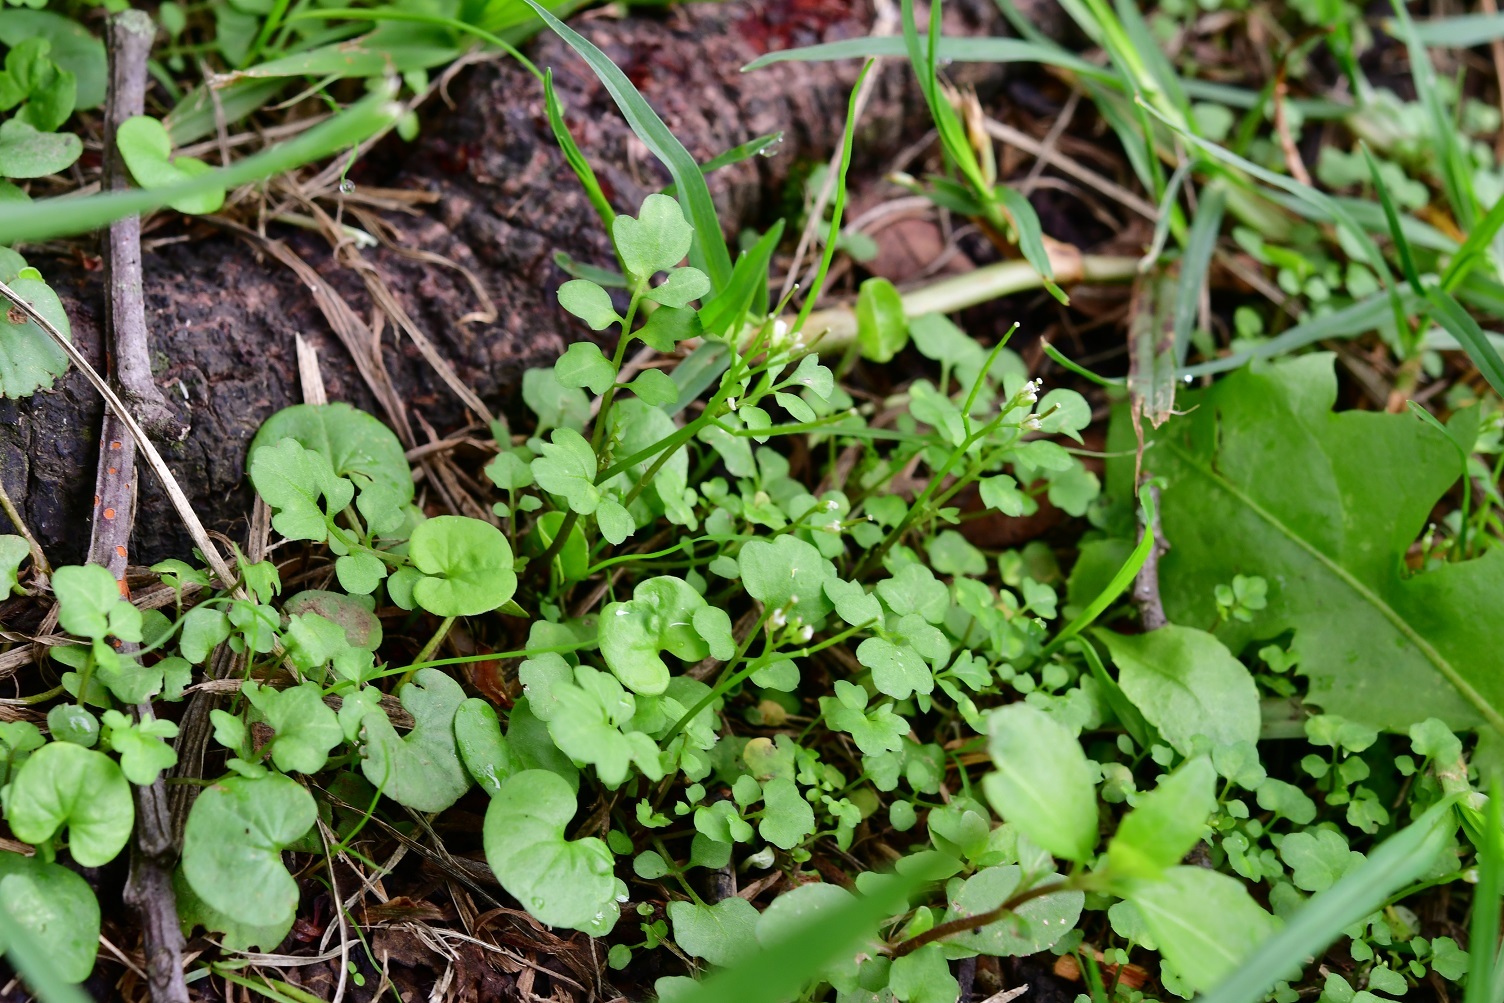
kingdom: Plantae
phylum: Tracheophyta
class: Magnoliopsida
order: Brassicales
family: Brassicaceae
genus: Cardamine
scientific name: Cardamine occulta
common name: Asian wavy bittercress
